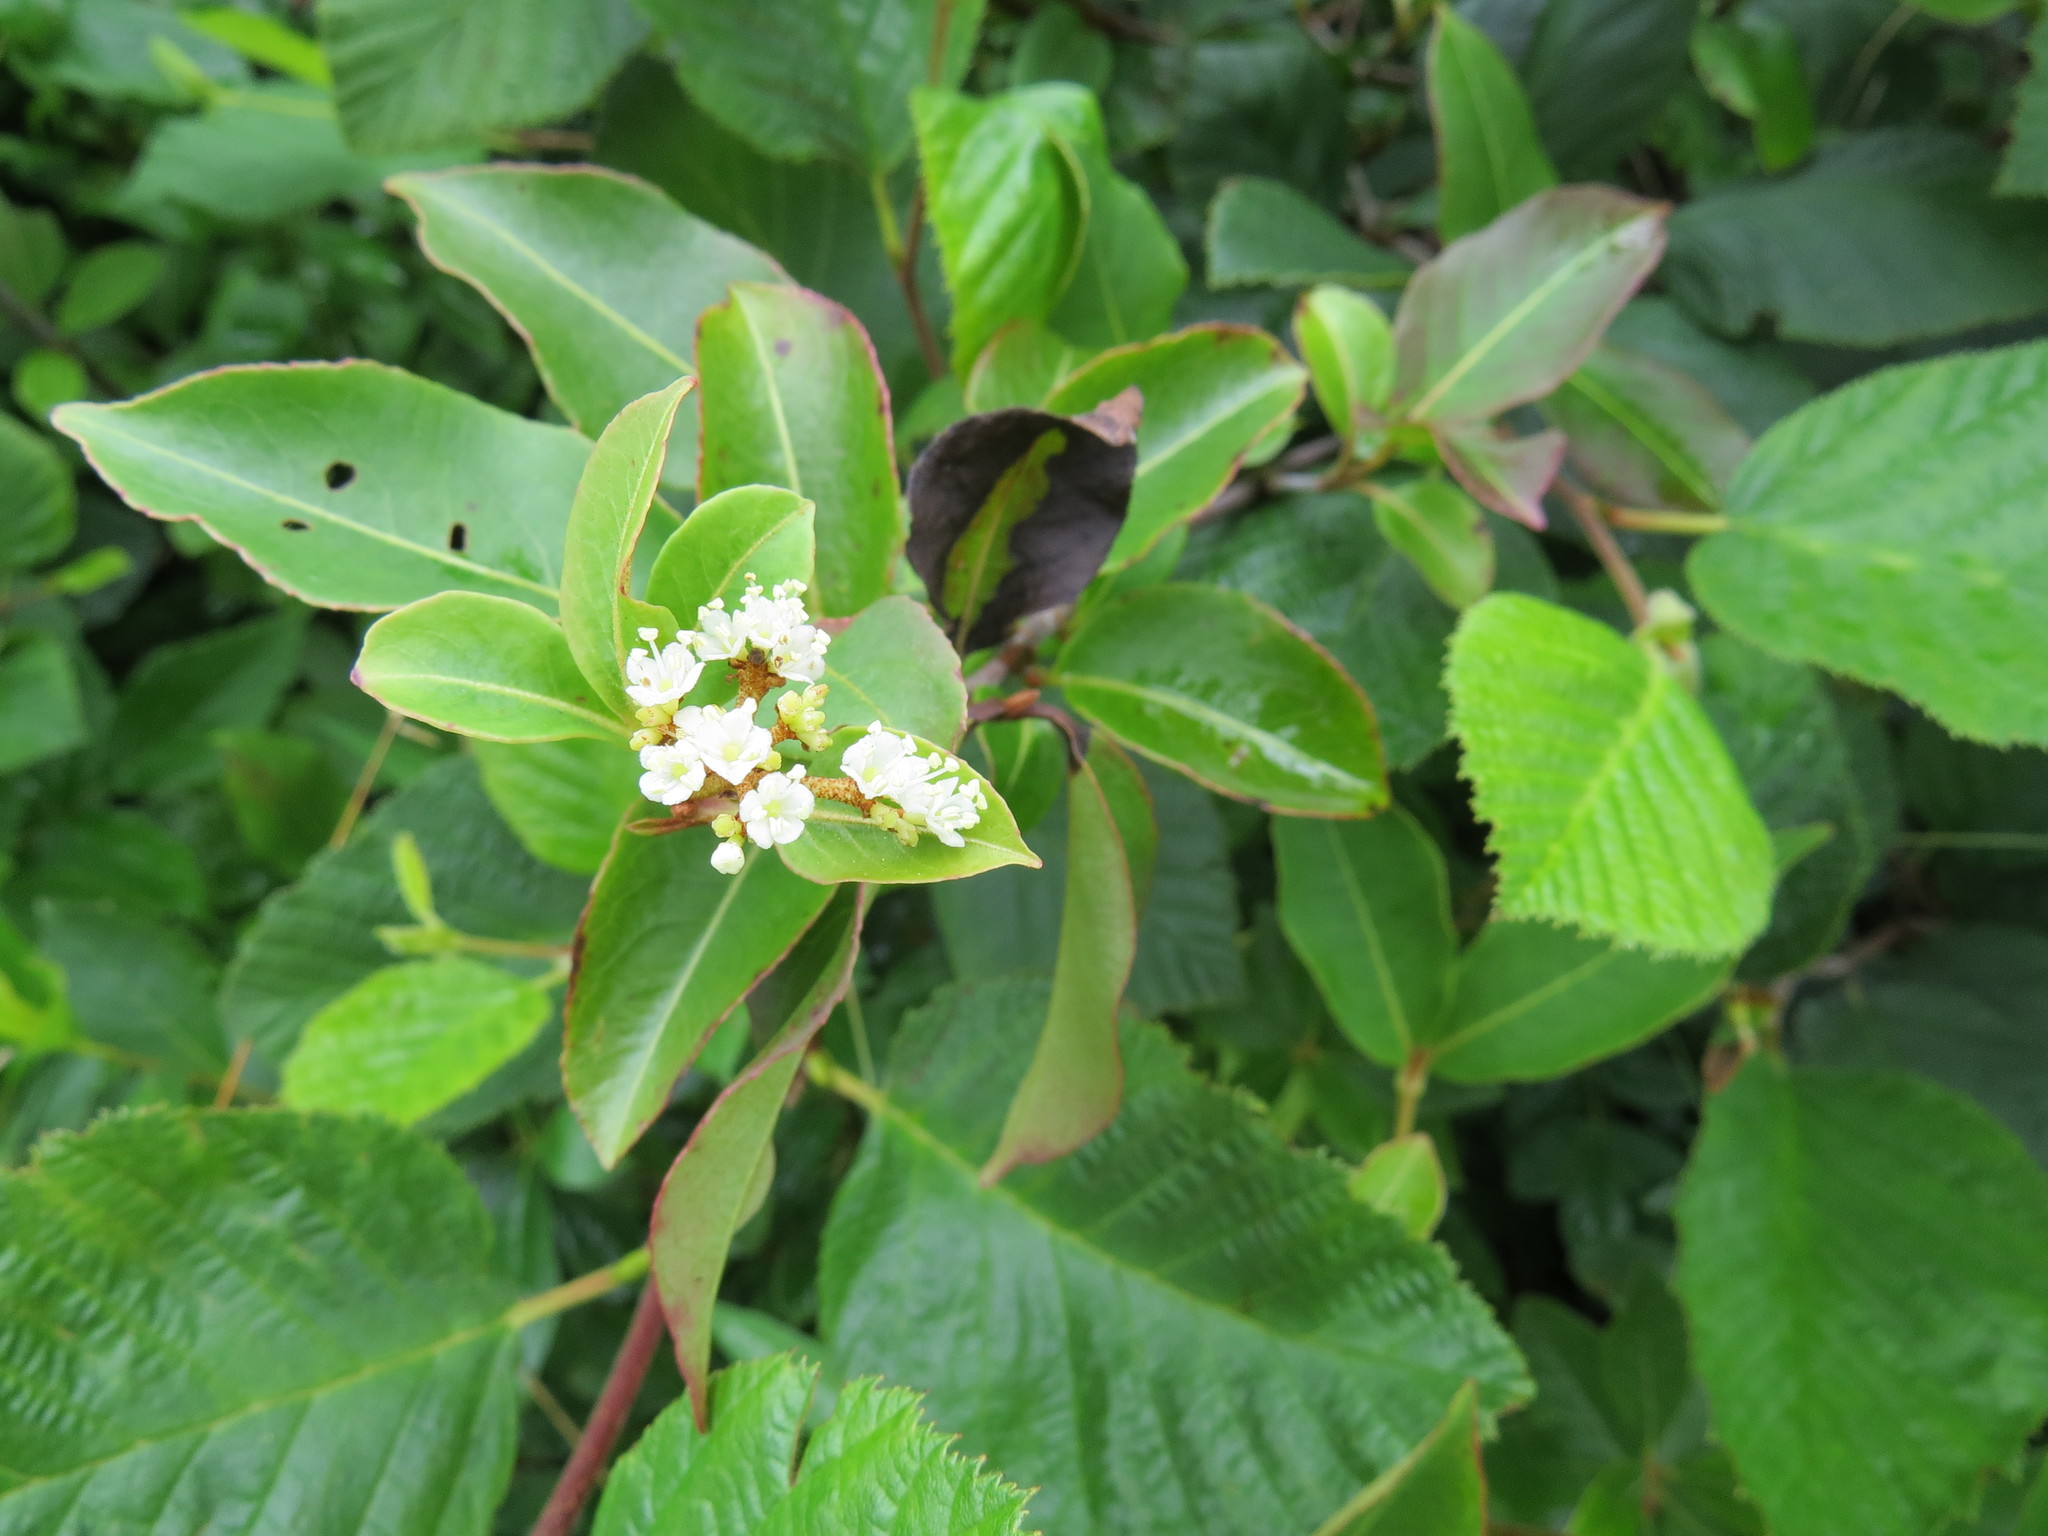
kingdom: Plantae
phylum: Tracheophyta
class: Magnoliopsida
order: Dipsacales
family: Viburnaceae
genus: Viburnum
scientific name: Viburnum cassinoides
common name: Swamp haw
